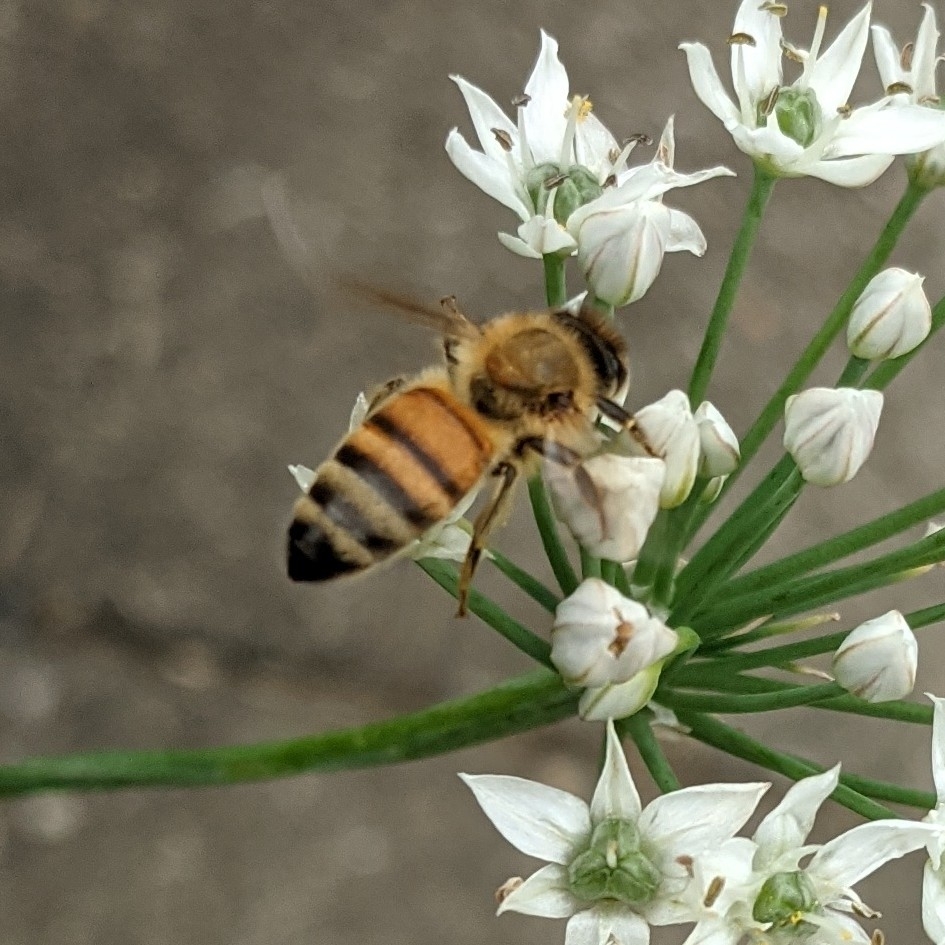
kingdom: Animalia
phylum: Arthropoda
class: Insecta
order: Hymenoptera
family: Apidae
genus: Apis
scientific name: Apis mellifera
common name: Honey bee
